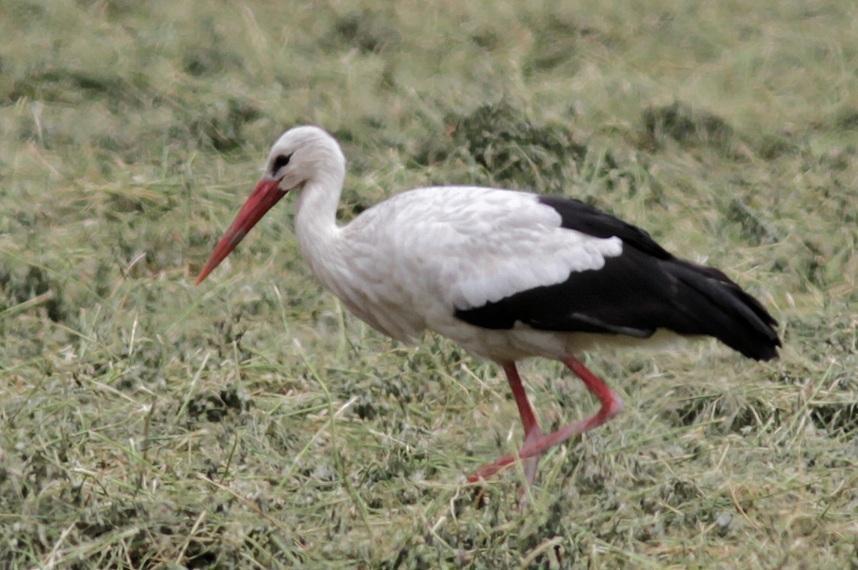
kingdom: Animalia
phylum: Chordata
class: Aves
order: Ciconiiformes
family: Ciconiidae
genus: Ciconia
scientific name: Ciconia ciconia
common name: White stork
